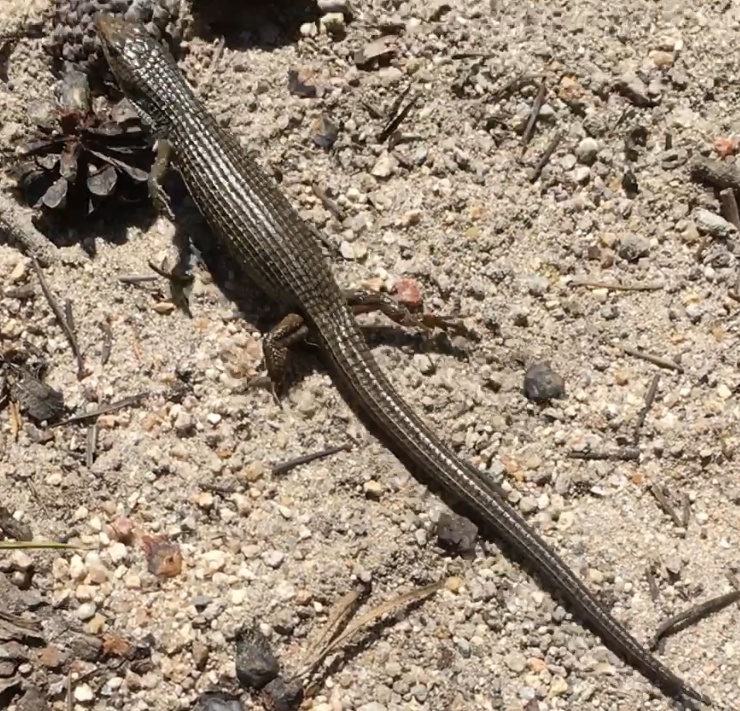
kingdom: Animalia
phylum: Chordata
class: Squamata
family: Anguidae
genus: Elgaria
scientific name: Elgaria coerulea
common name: Northern alligator lizard
